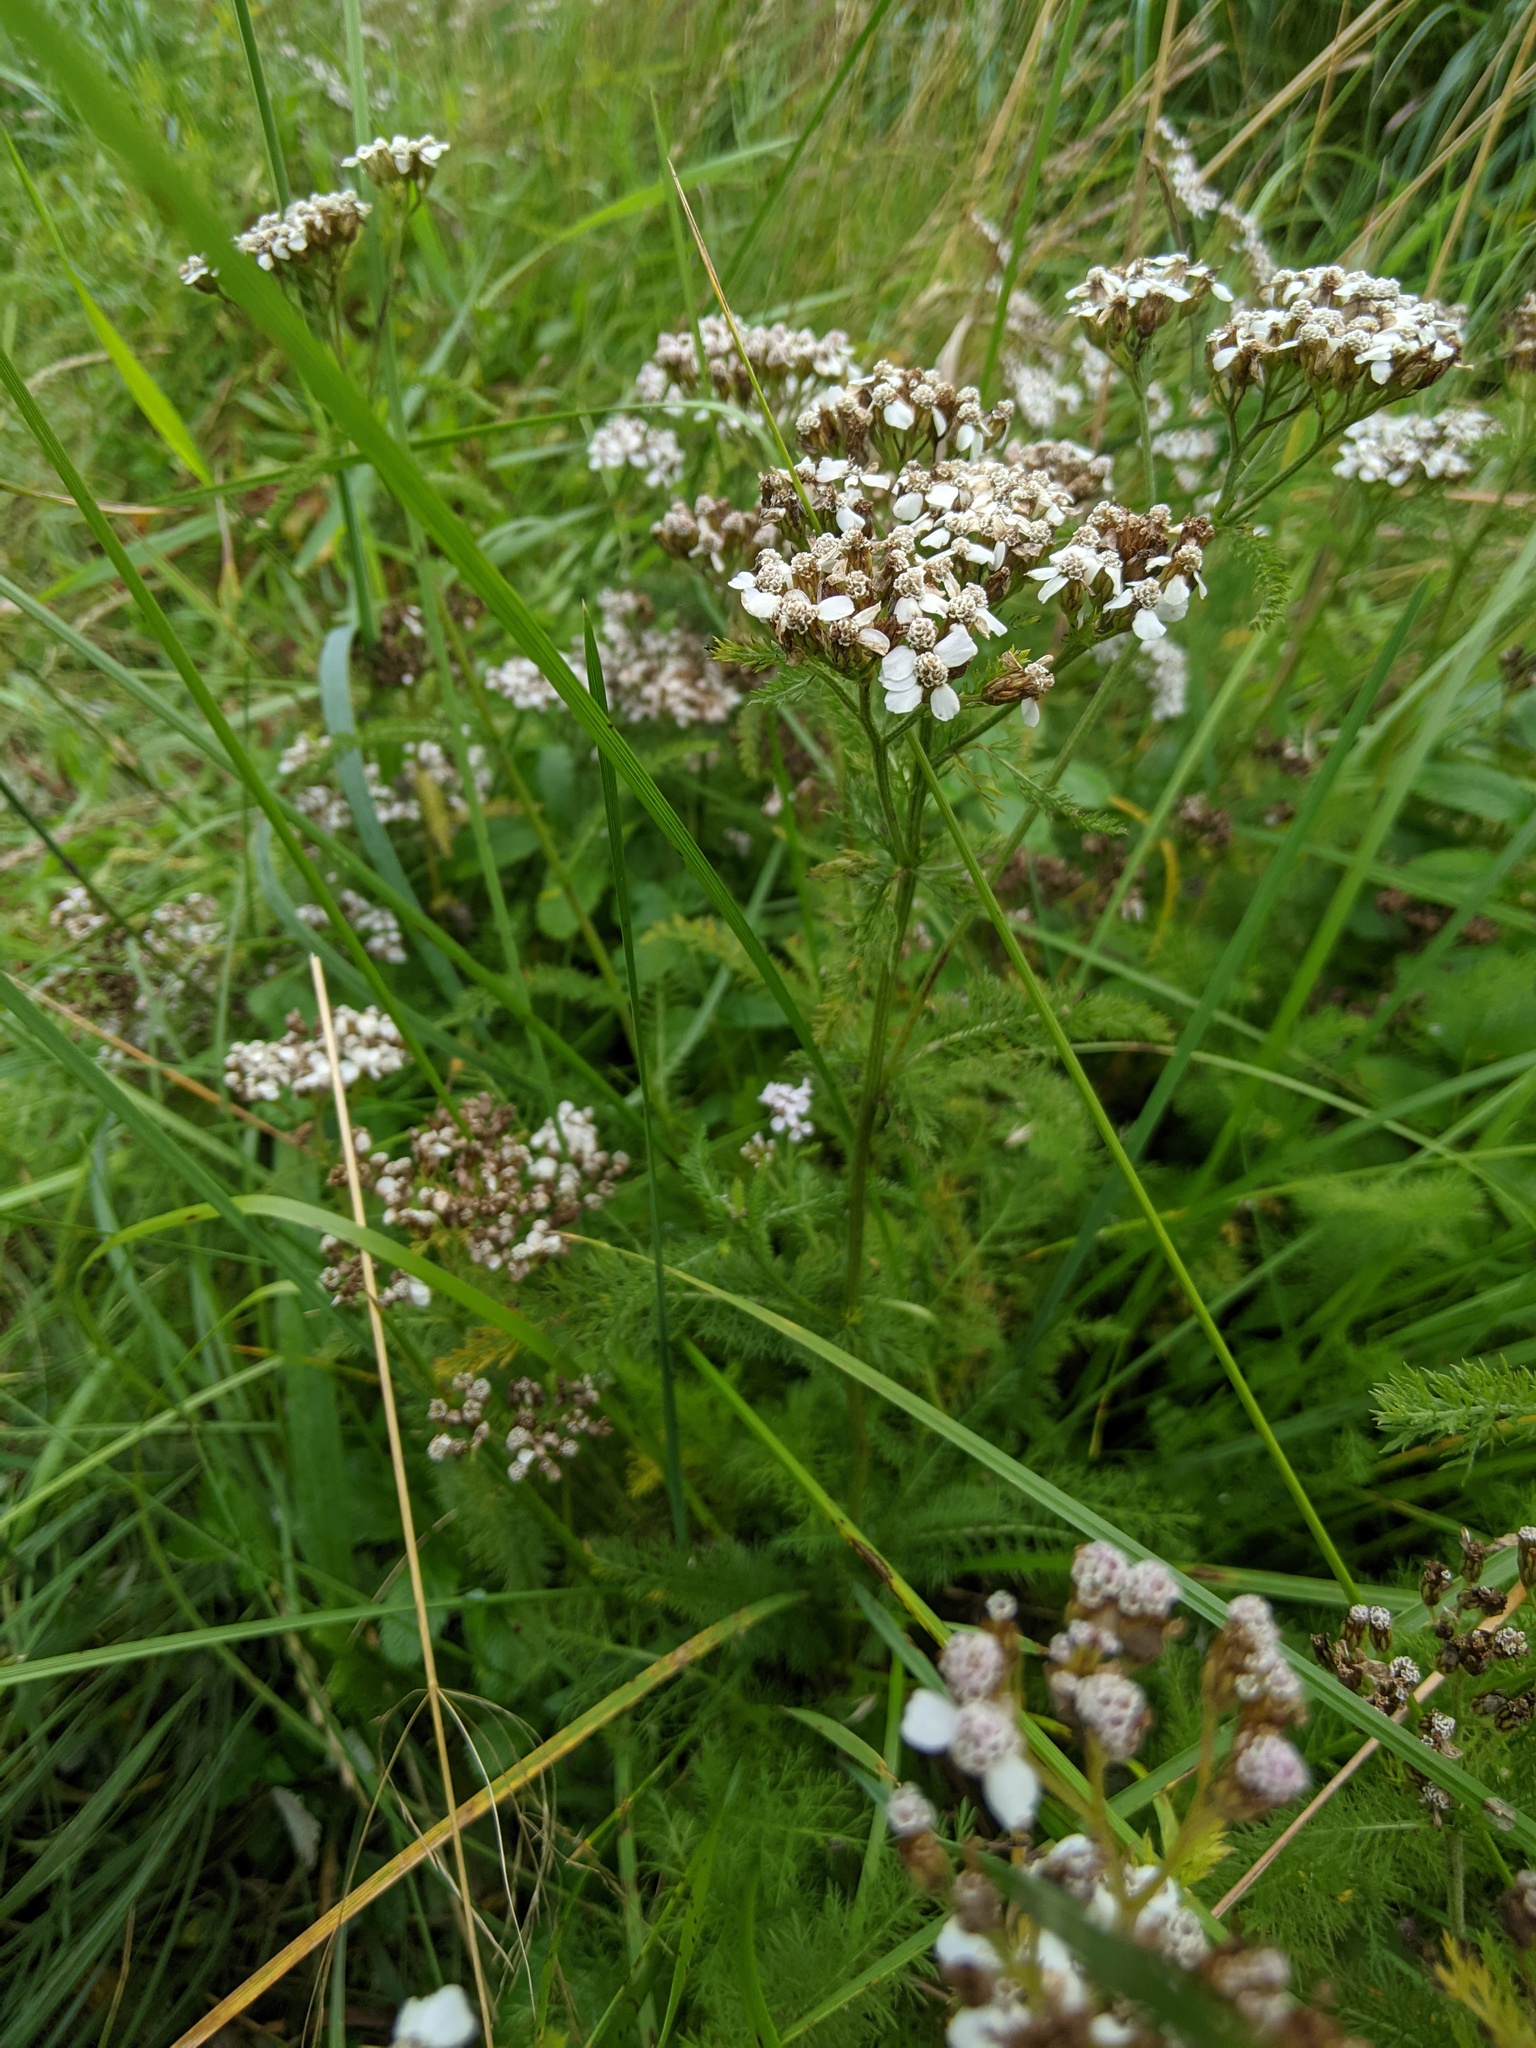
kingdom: Plantae
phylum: Tracheophyta
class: Magnoliopsida
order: Asterales
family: Asteraceae
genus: Achillea
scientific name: Achillea millefolium
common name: Yarrow
